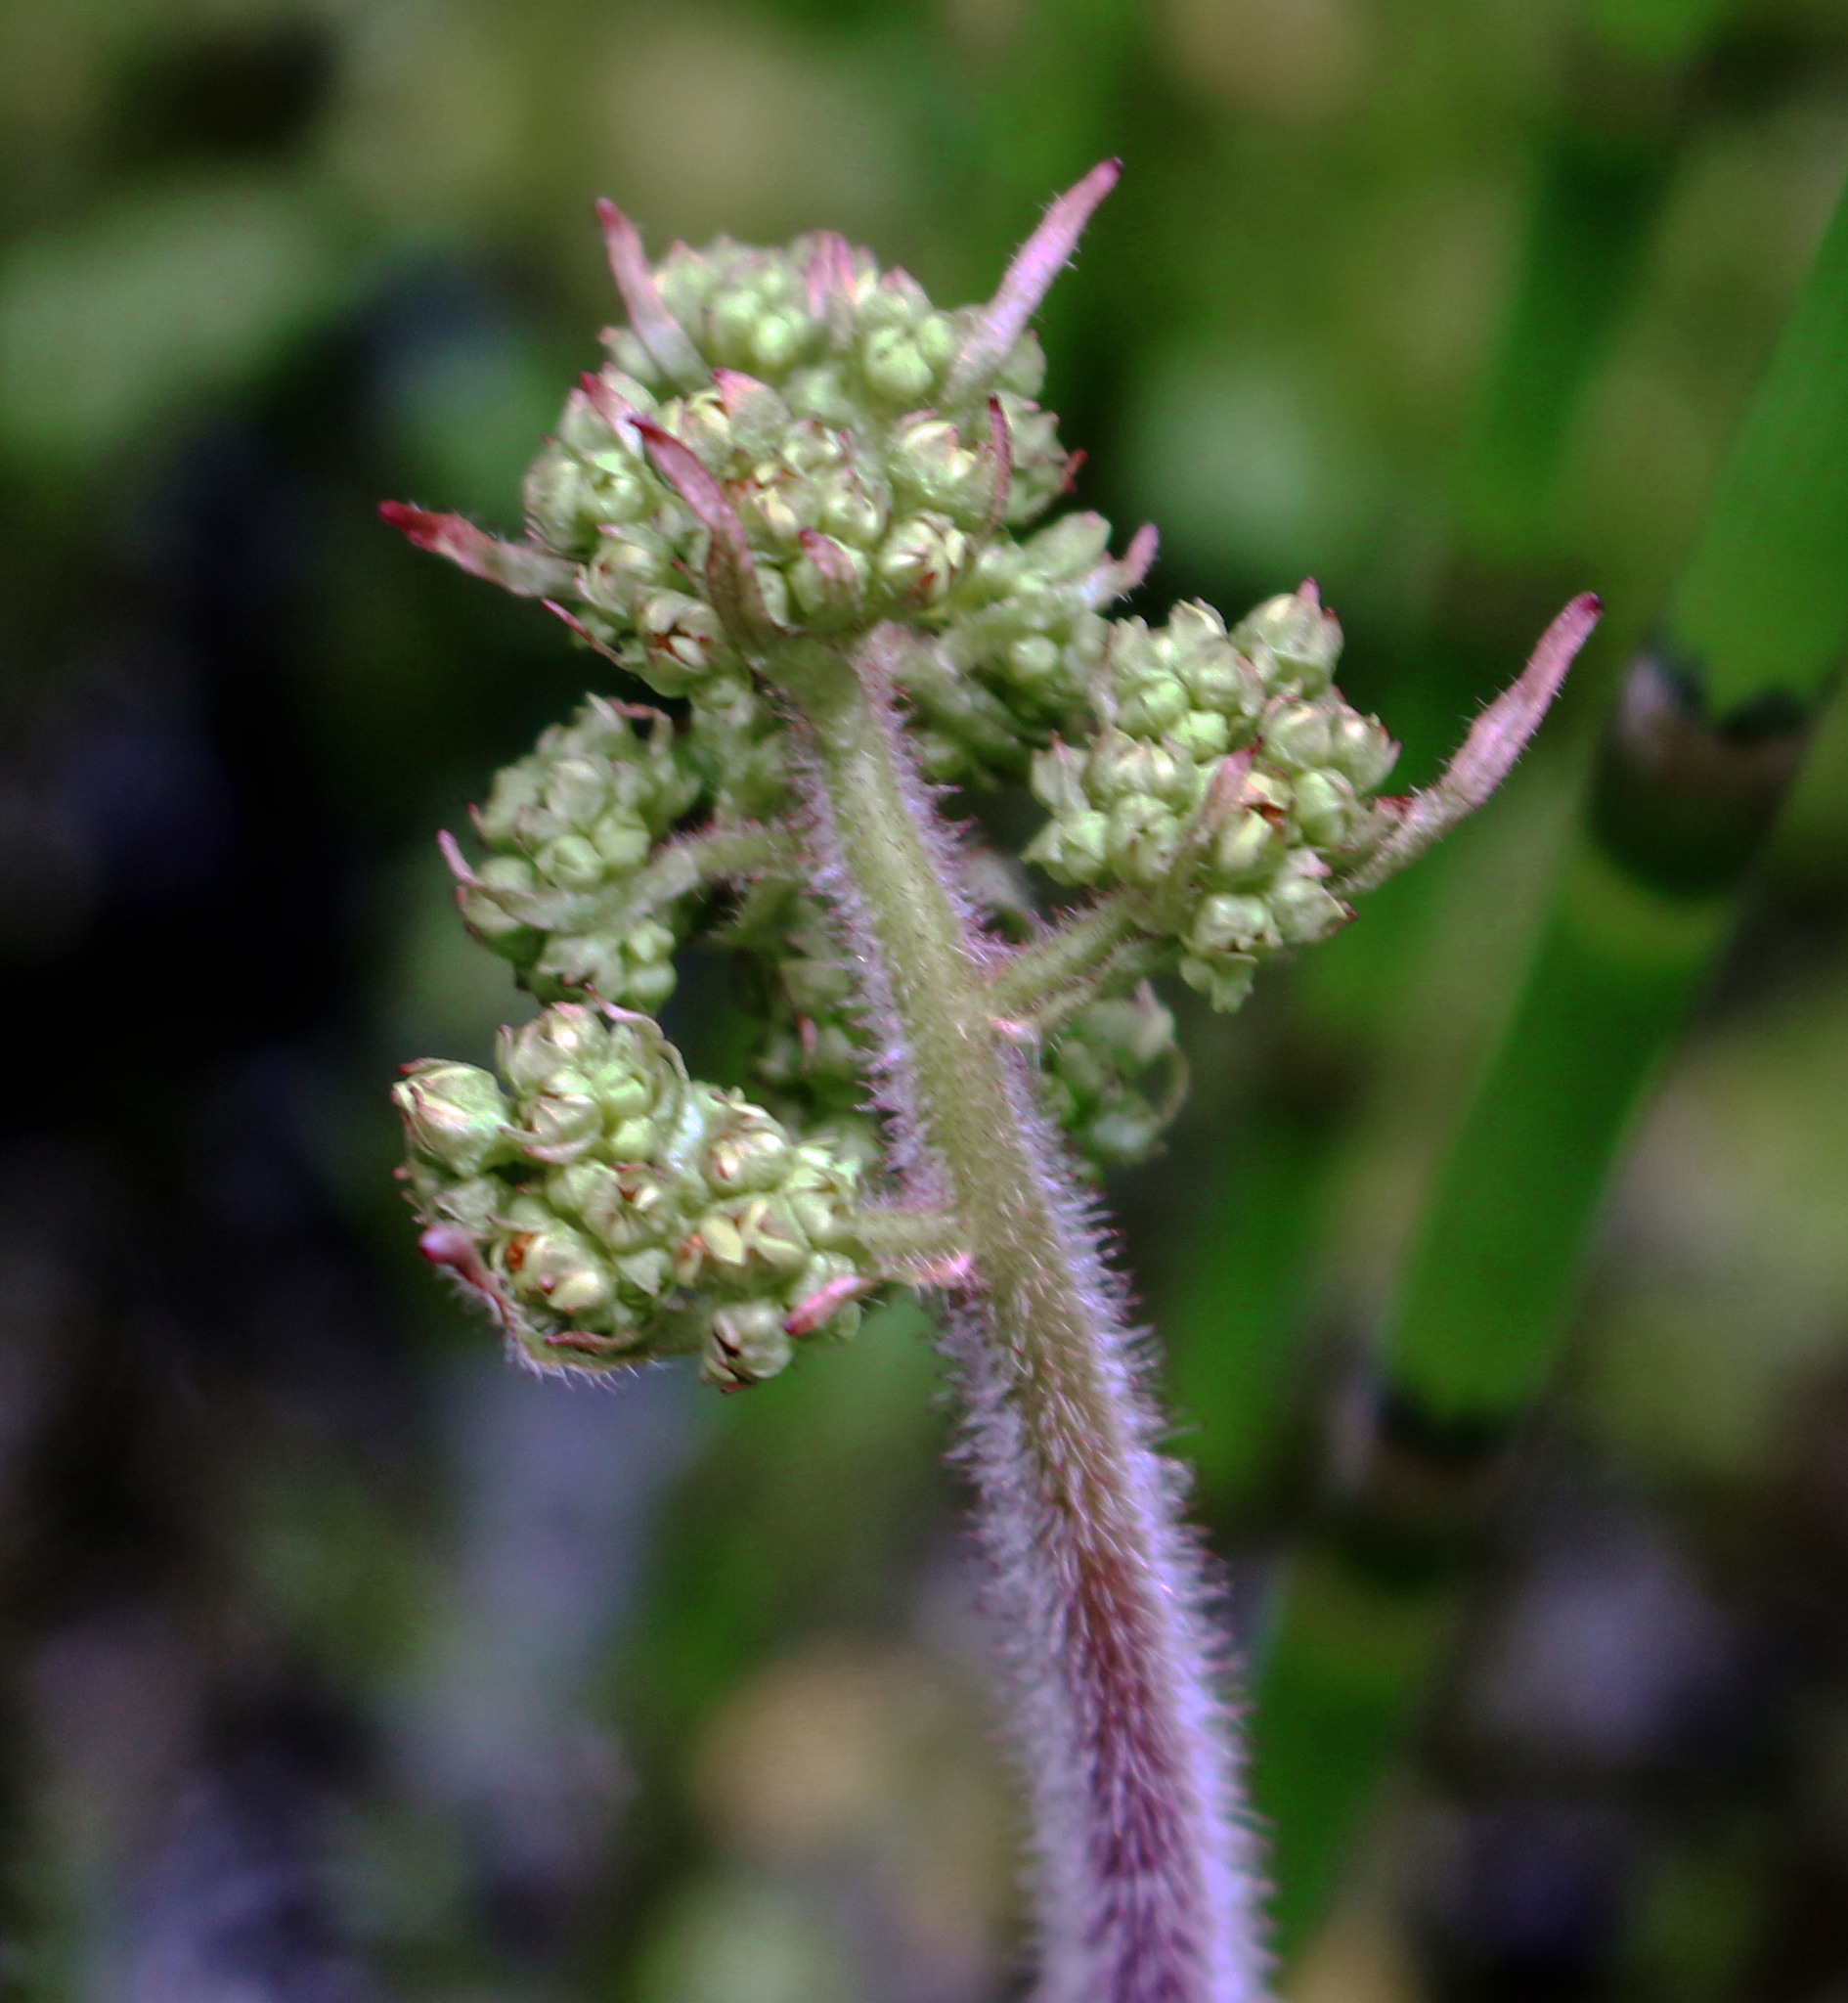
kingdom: Plantae
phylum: Tracheophyta
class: Magnoliopsida
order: Saxifragales
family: Saxifragaceae
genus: Micranthes
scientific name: Micranthes pensylvanica
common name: Marsh saxifrage
